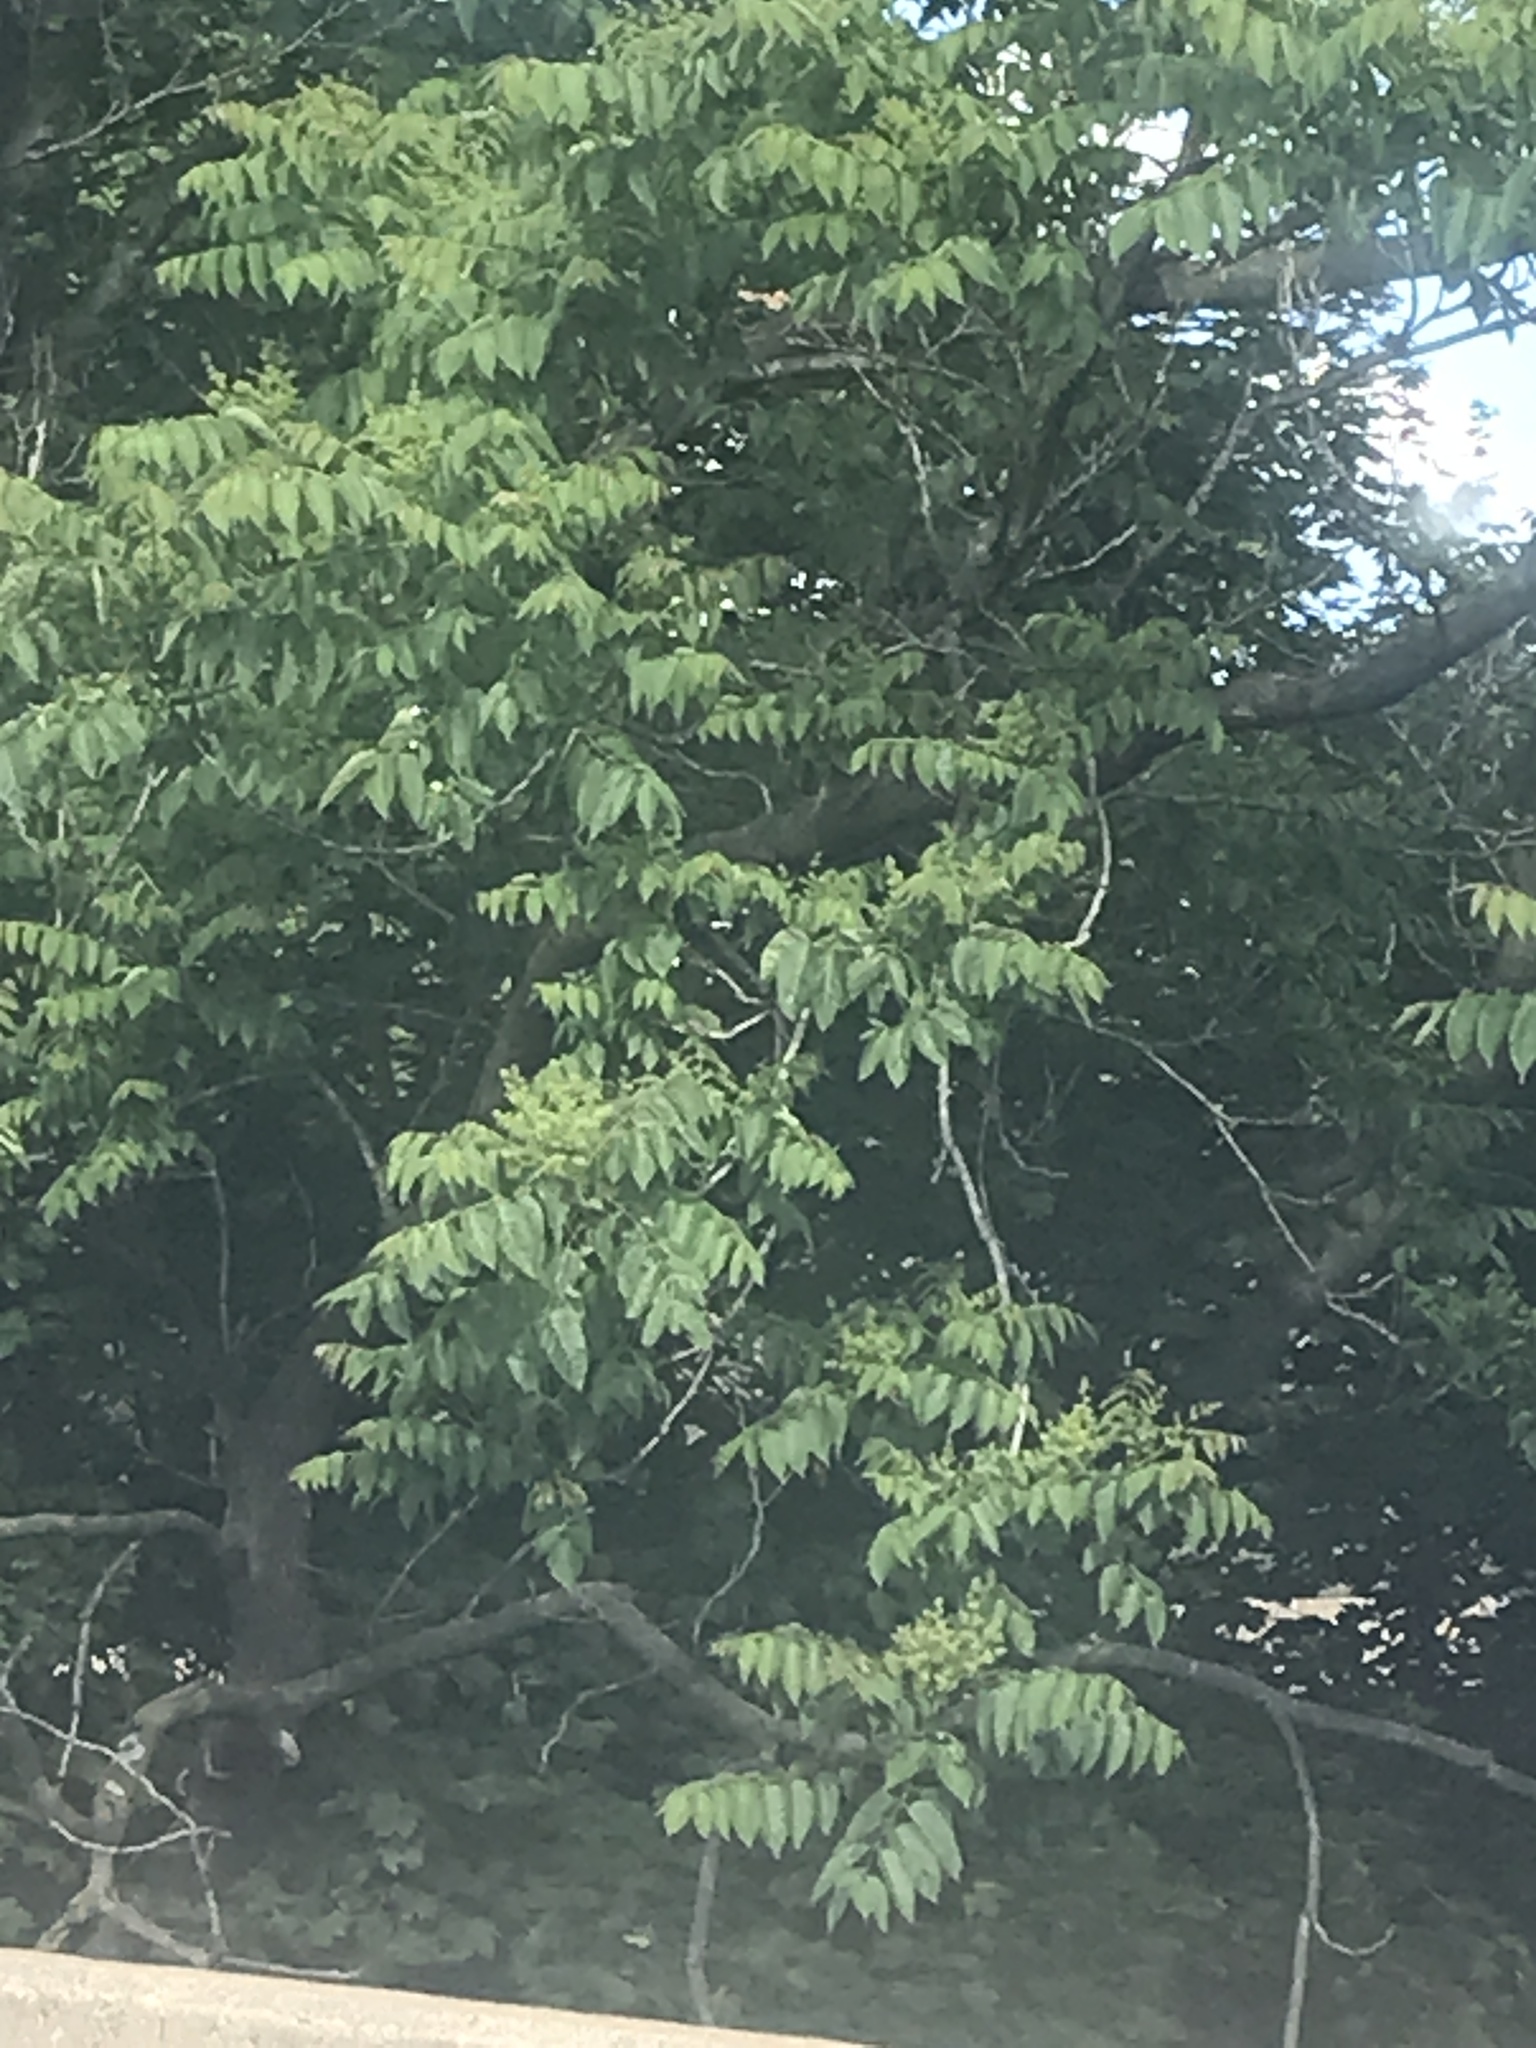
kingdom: Plantae
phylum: Tracheophyta
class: Magnoliopsida
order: Sapindales
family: Simaroubaceae
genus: Ailanthus
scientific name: Ailanthus altissima
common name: Tree-of-heaven
